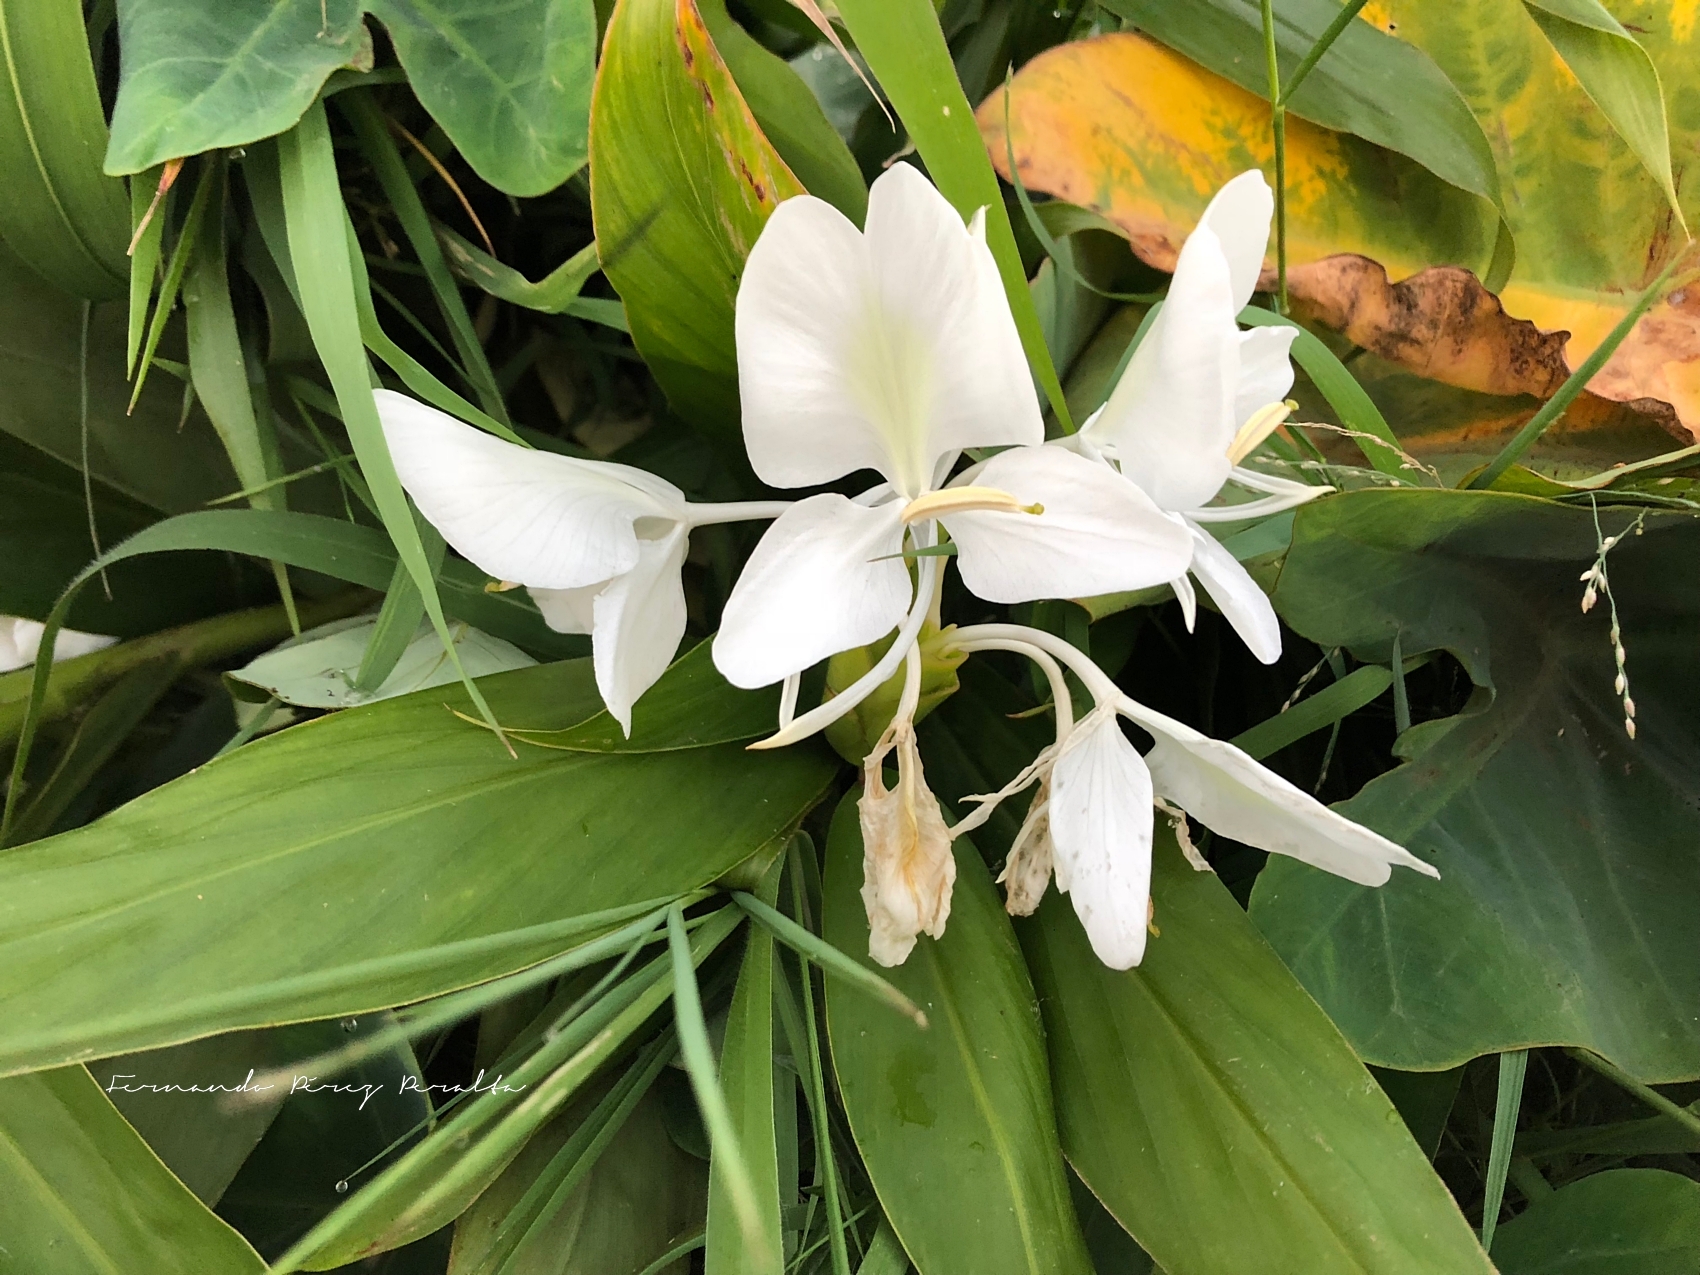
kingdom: Plantae
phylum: Tracheophyta
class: Liliopsida
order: Zingiberales
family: Zingiberaceae
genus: Hedychium
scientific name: Hedychium coronarium
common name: White garland-lily
